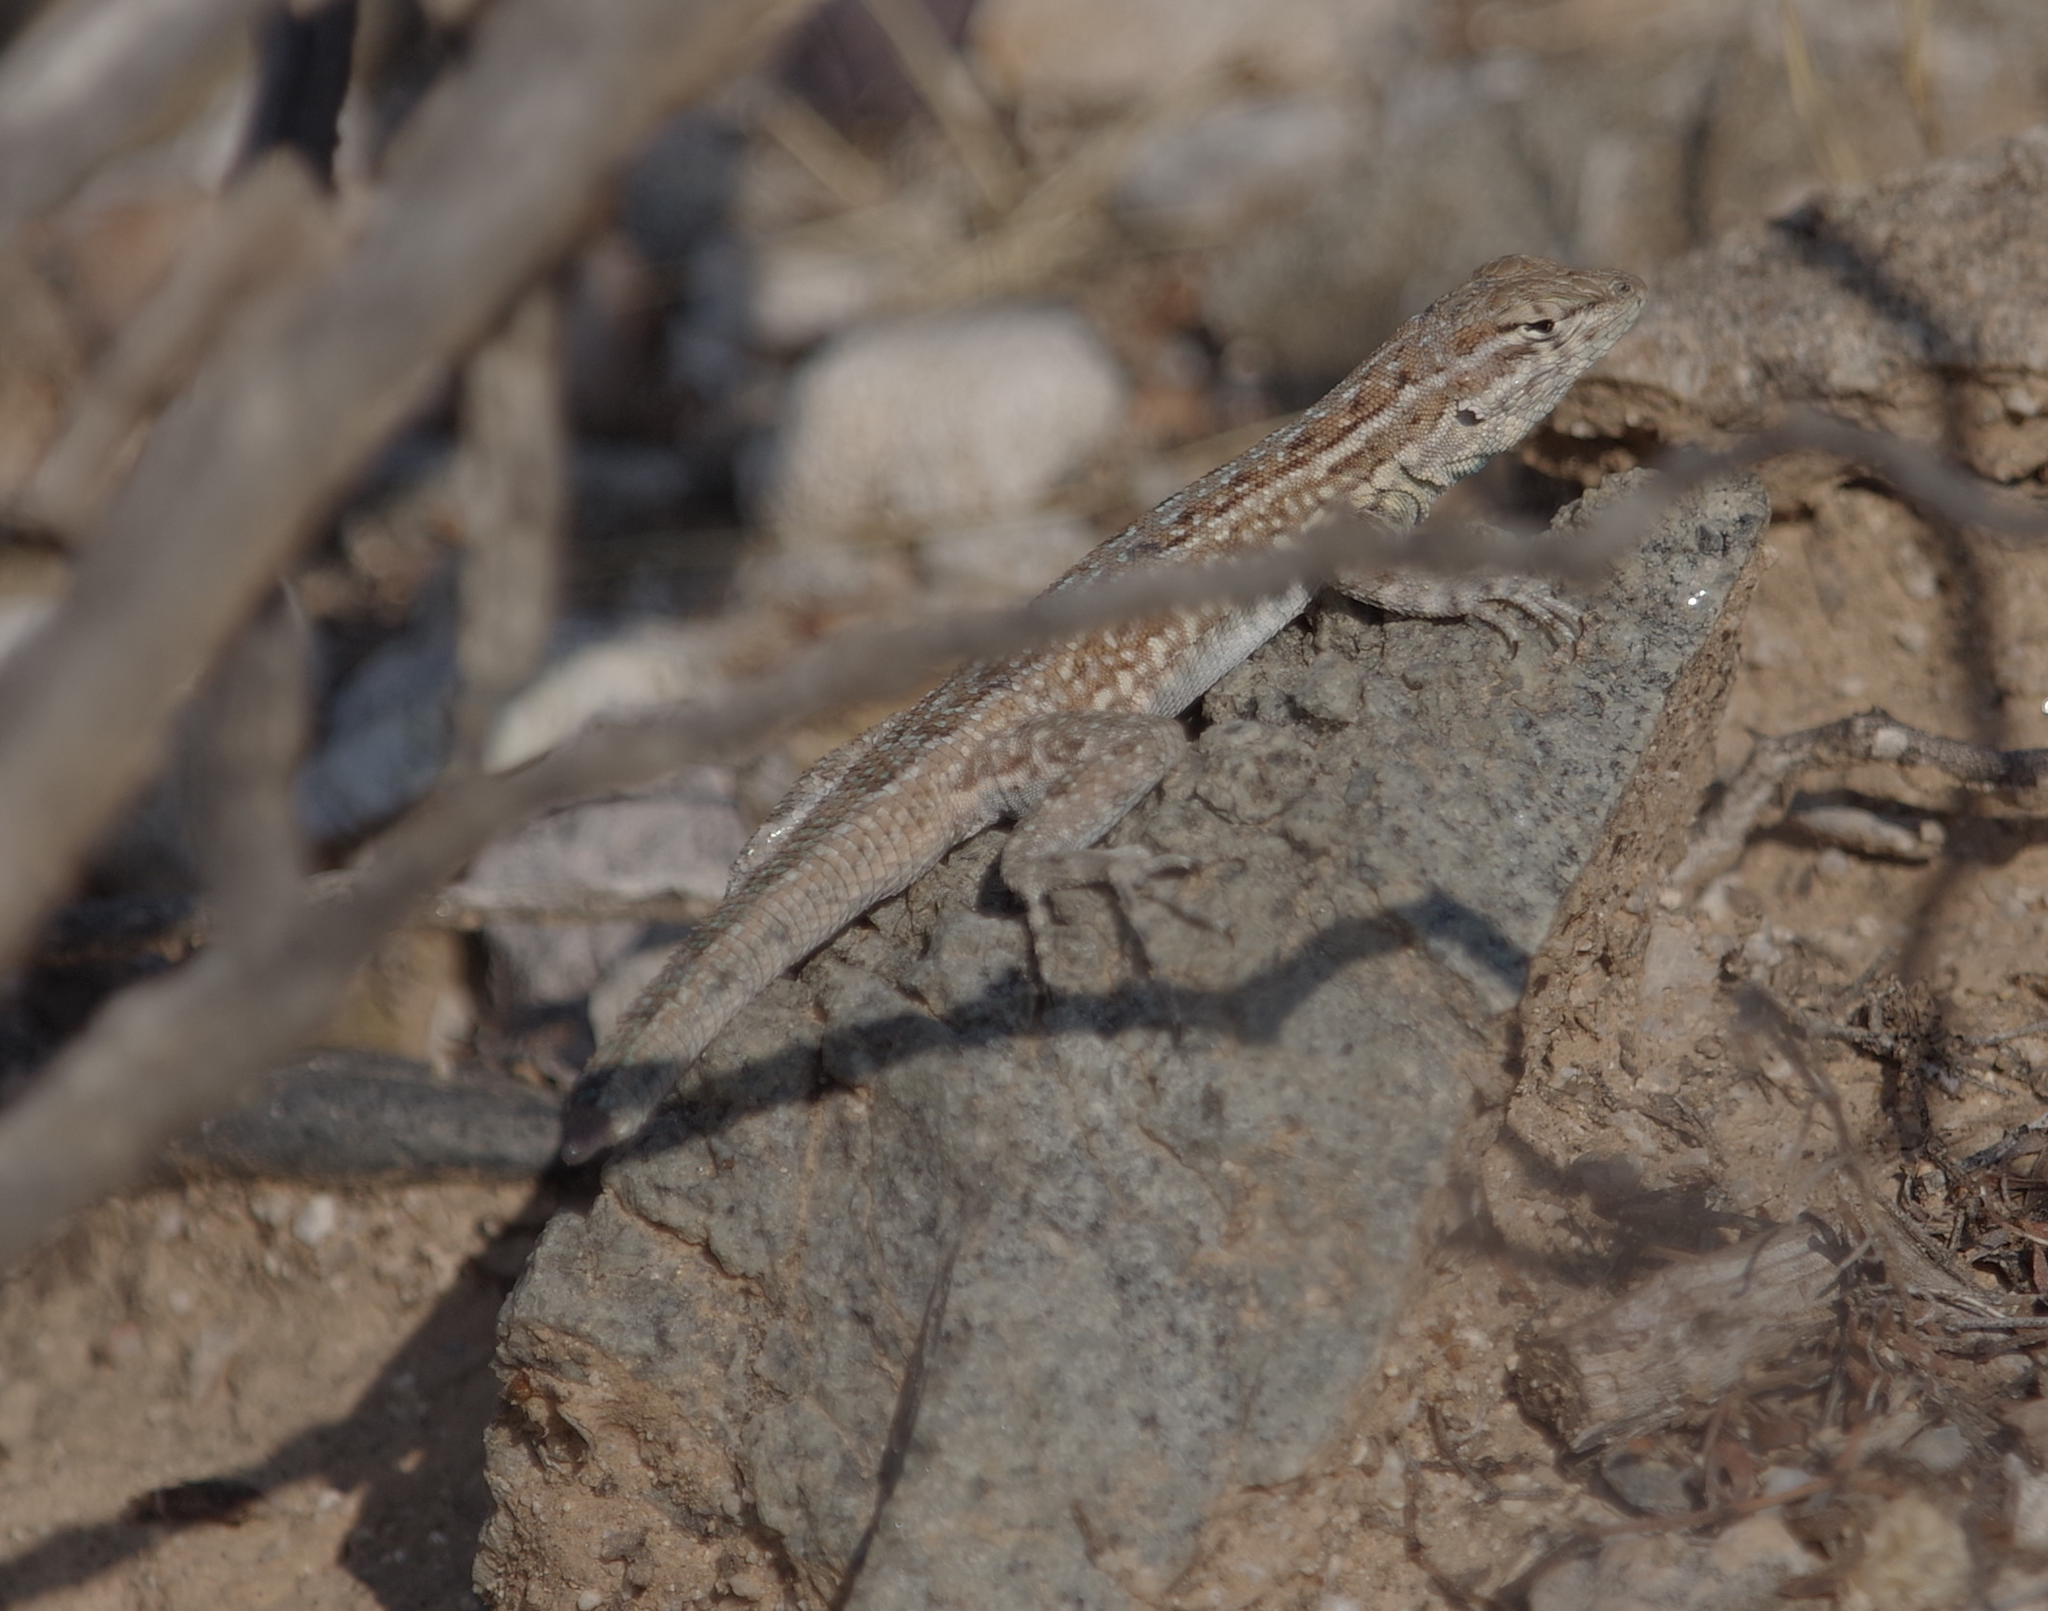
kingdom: Animalia
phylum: Chordata
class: Squamata
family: Phrynosomatidae
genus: Uta
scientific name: Uta stansburiana
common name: Side-blotched lizard
